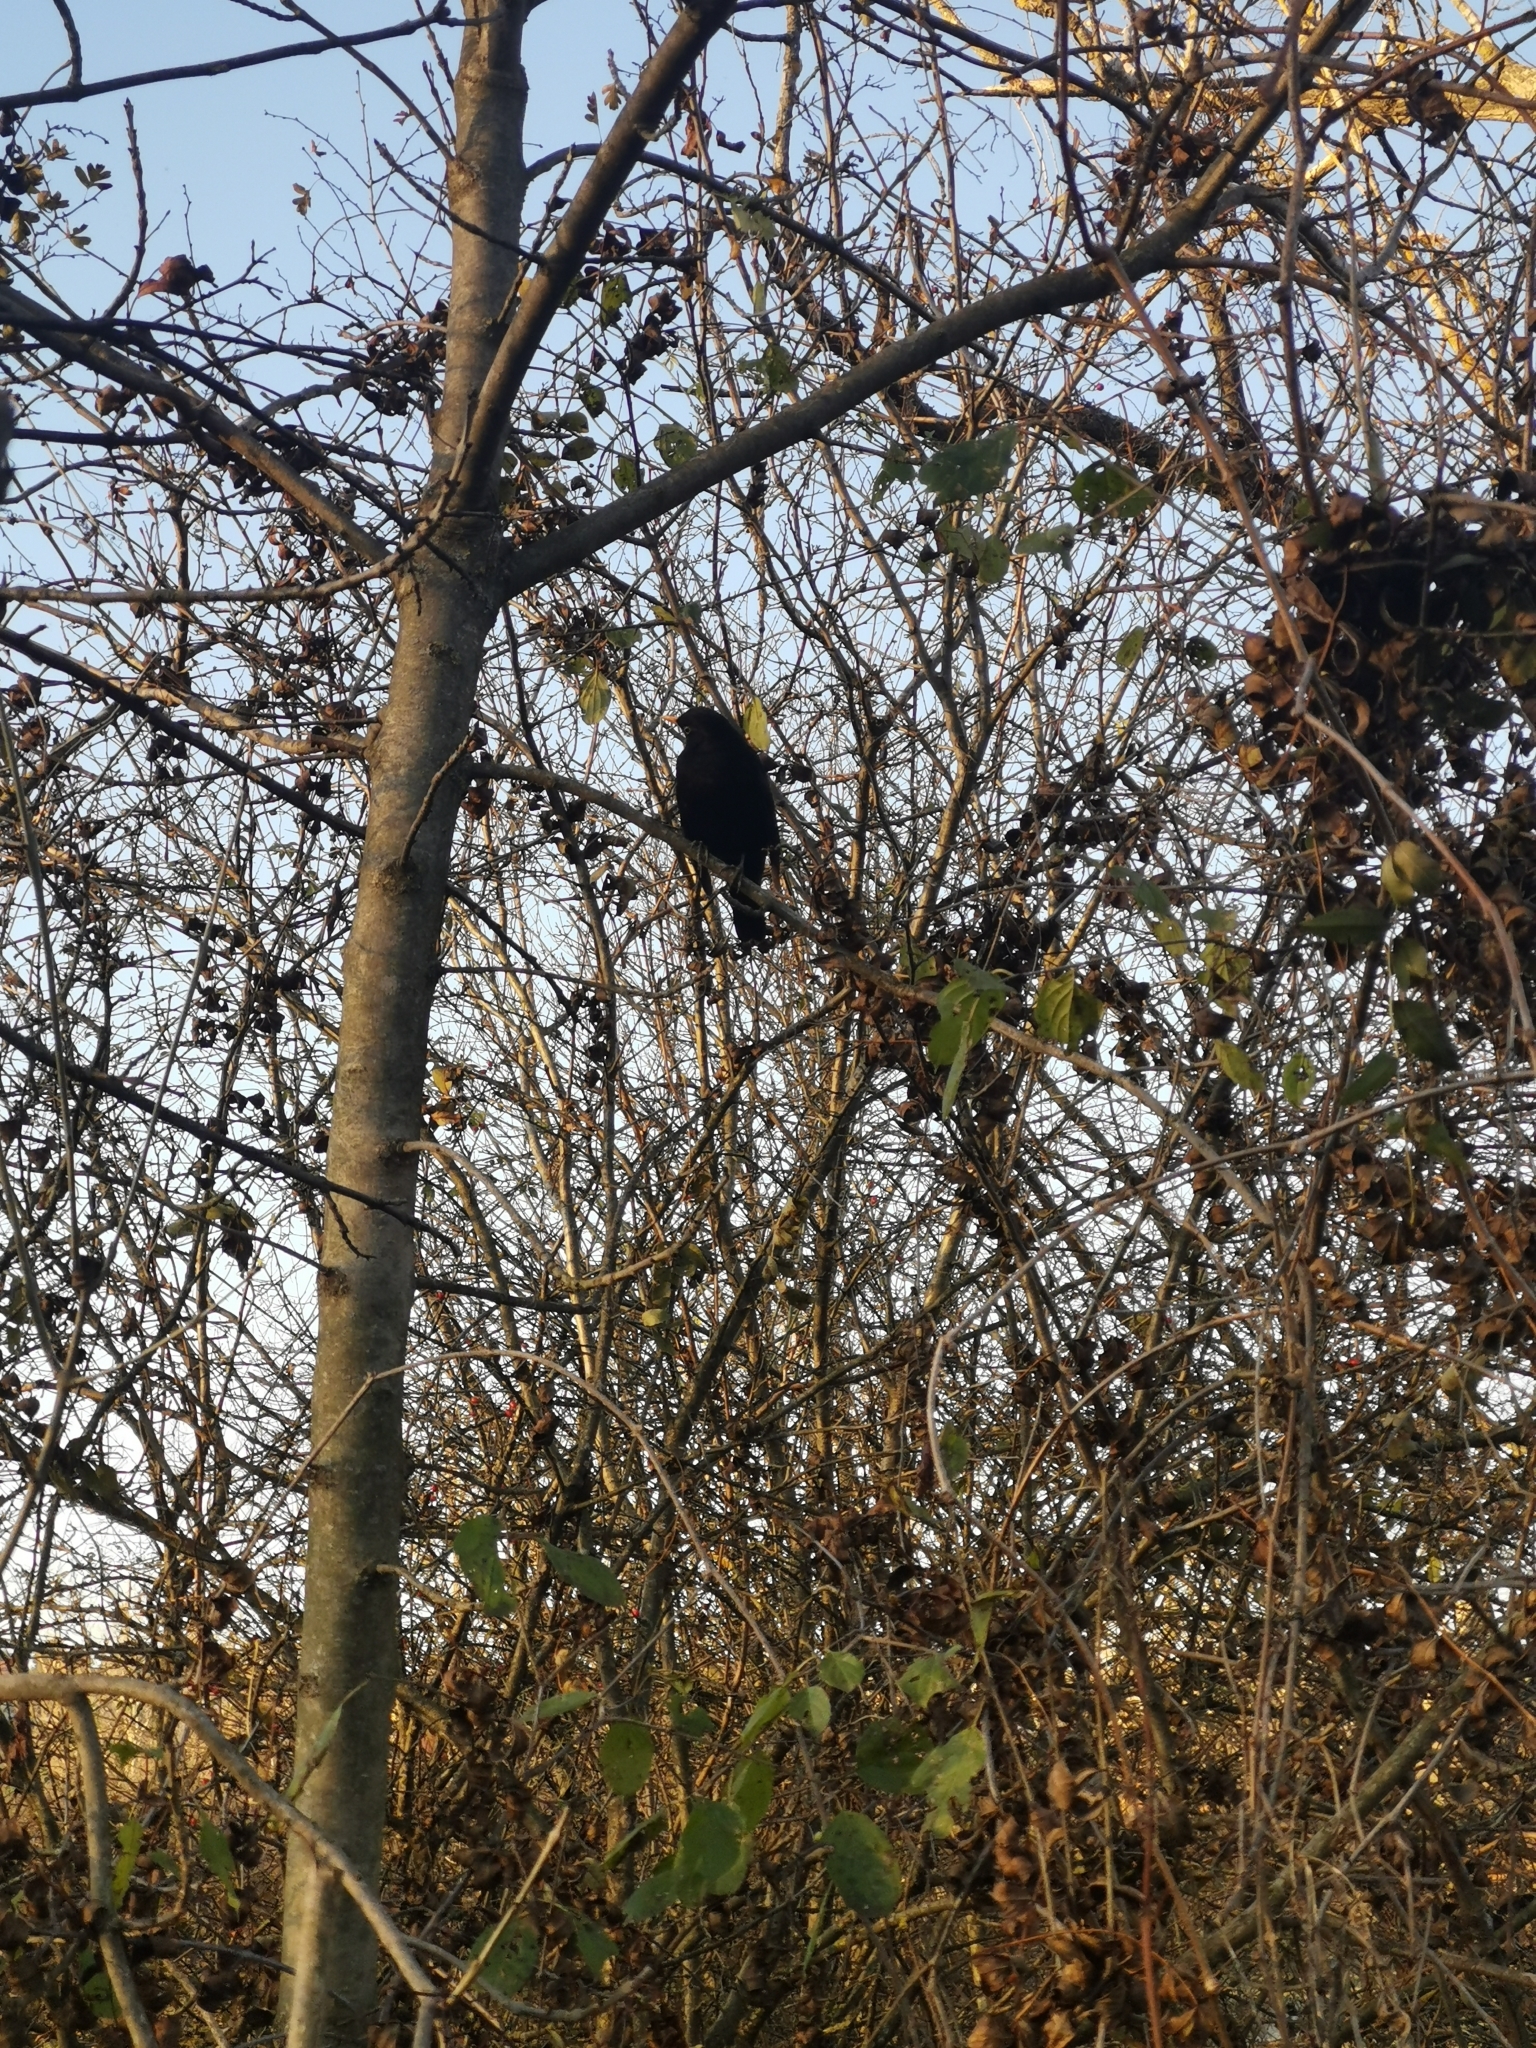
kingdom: Animalia
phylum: Chordata
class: Aves
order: Passeriformes
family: Turdidae
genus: Turdus
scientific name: Turdus merula
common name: Common blackbird
